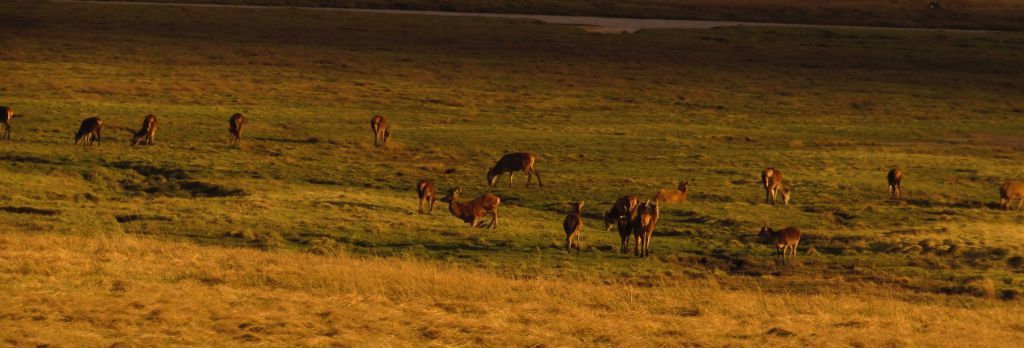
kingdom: Animalia
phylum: Chordata
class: Mammalia
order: Artiodactyla
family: Cervidae
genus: Cervus
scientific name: Cervus elaphus
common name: Red deer
